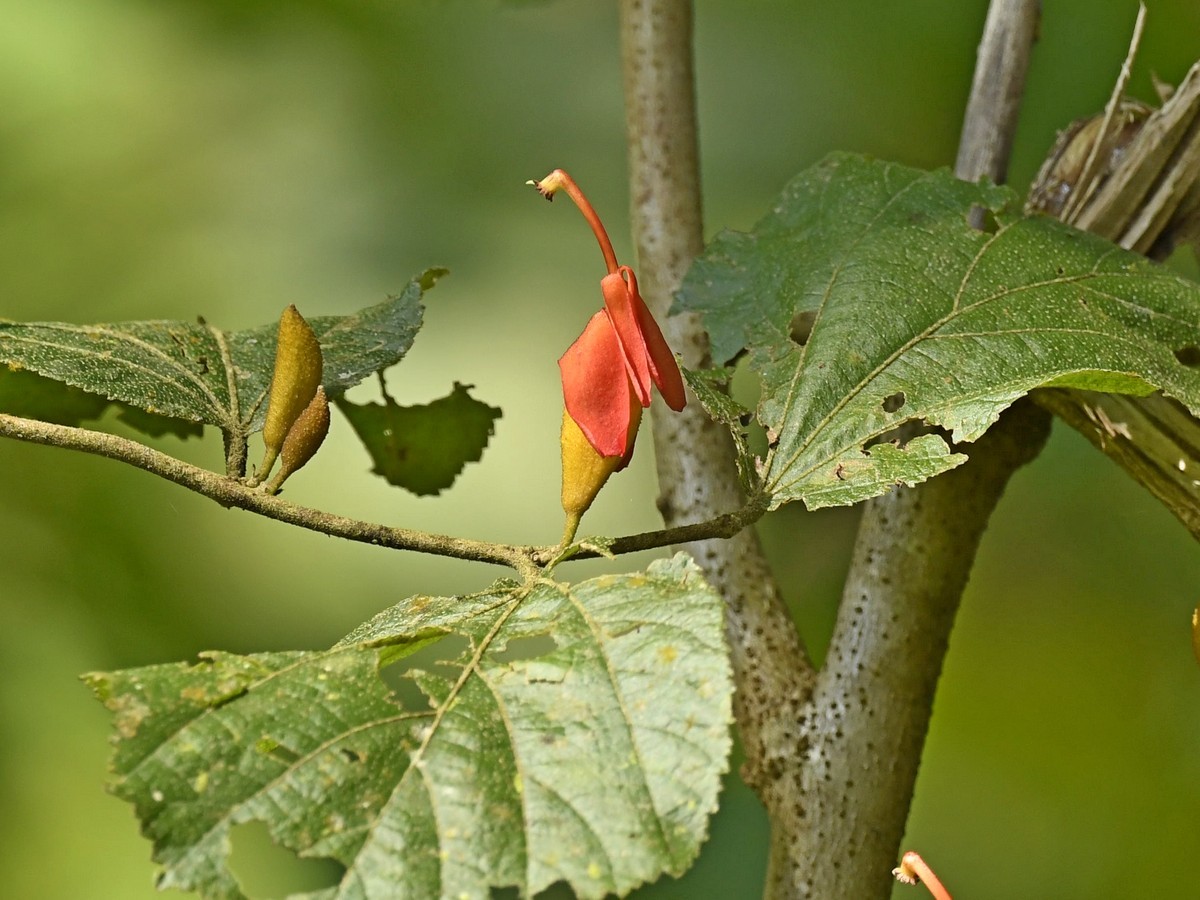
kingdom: Plantae
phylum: Tracheophyta
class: Magnoliopsida
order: Malvales
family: Malvaceae
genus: Helicteres
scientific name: Helicteres isora
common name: East indian screwtree
